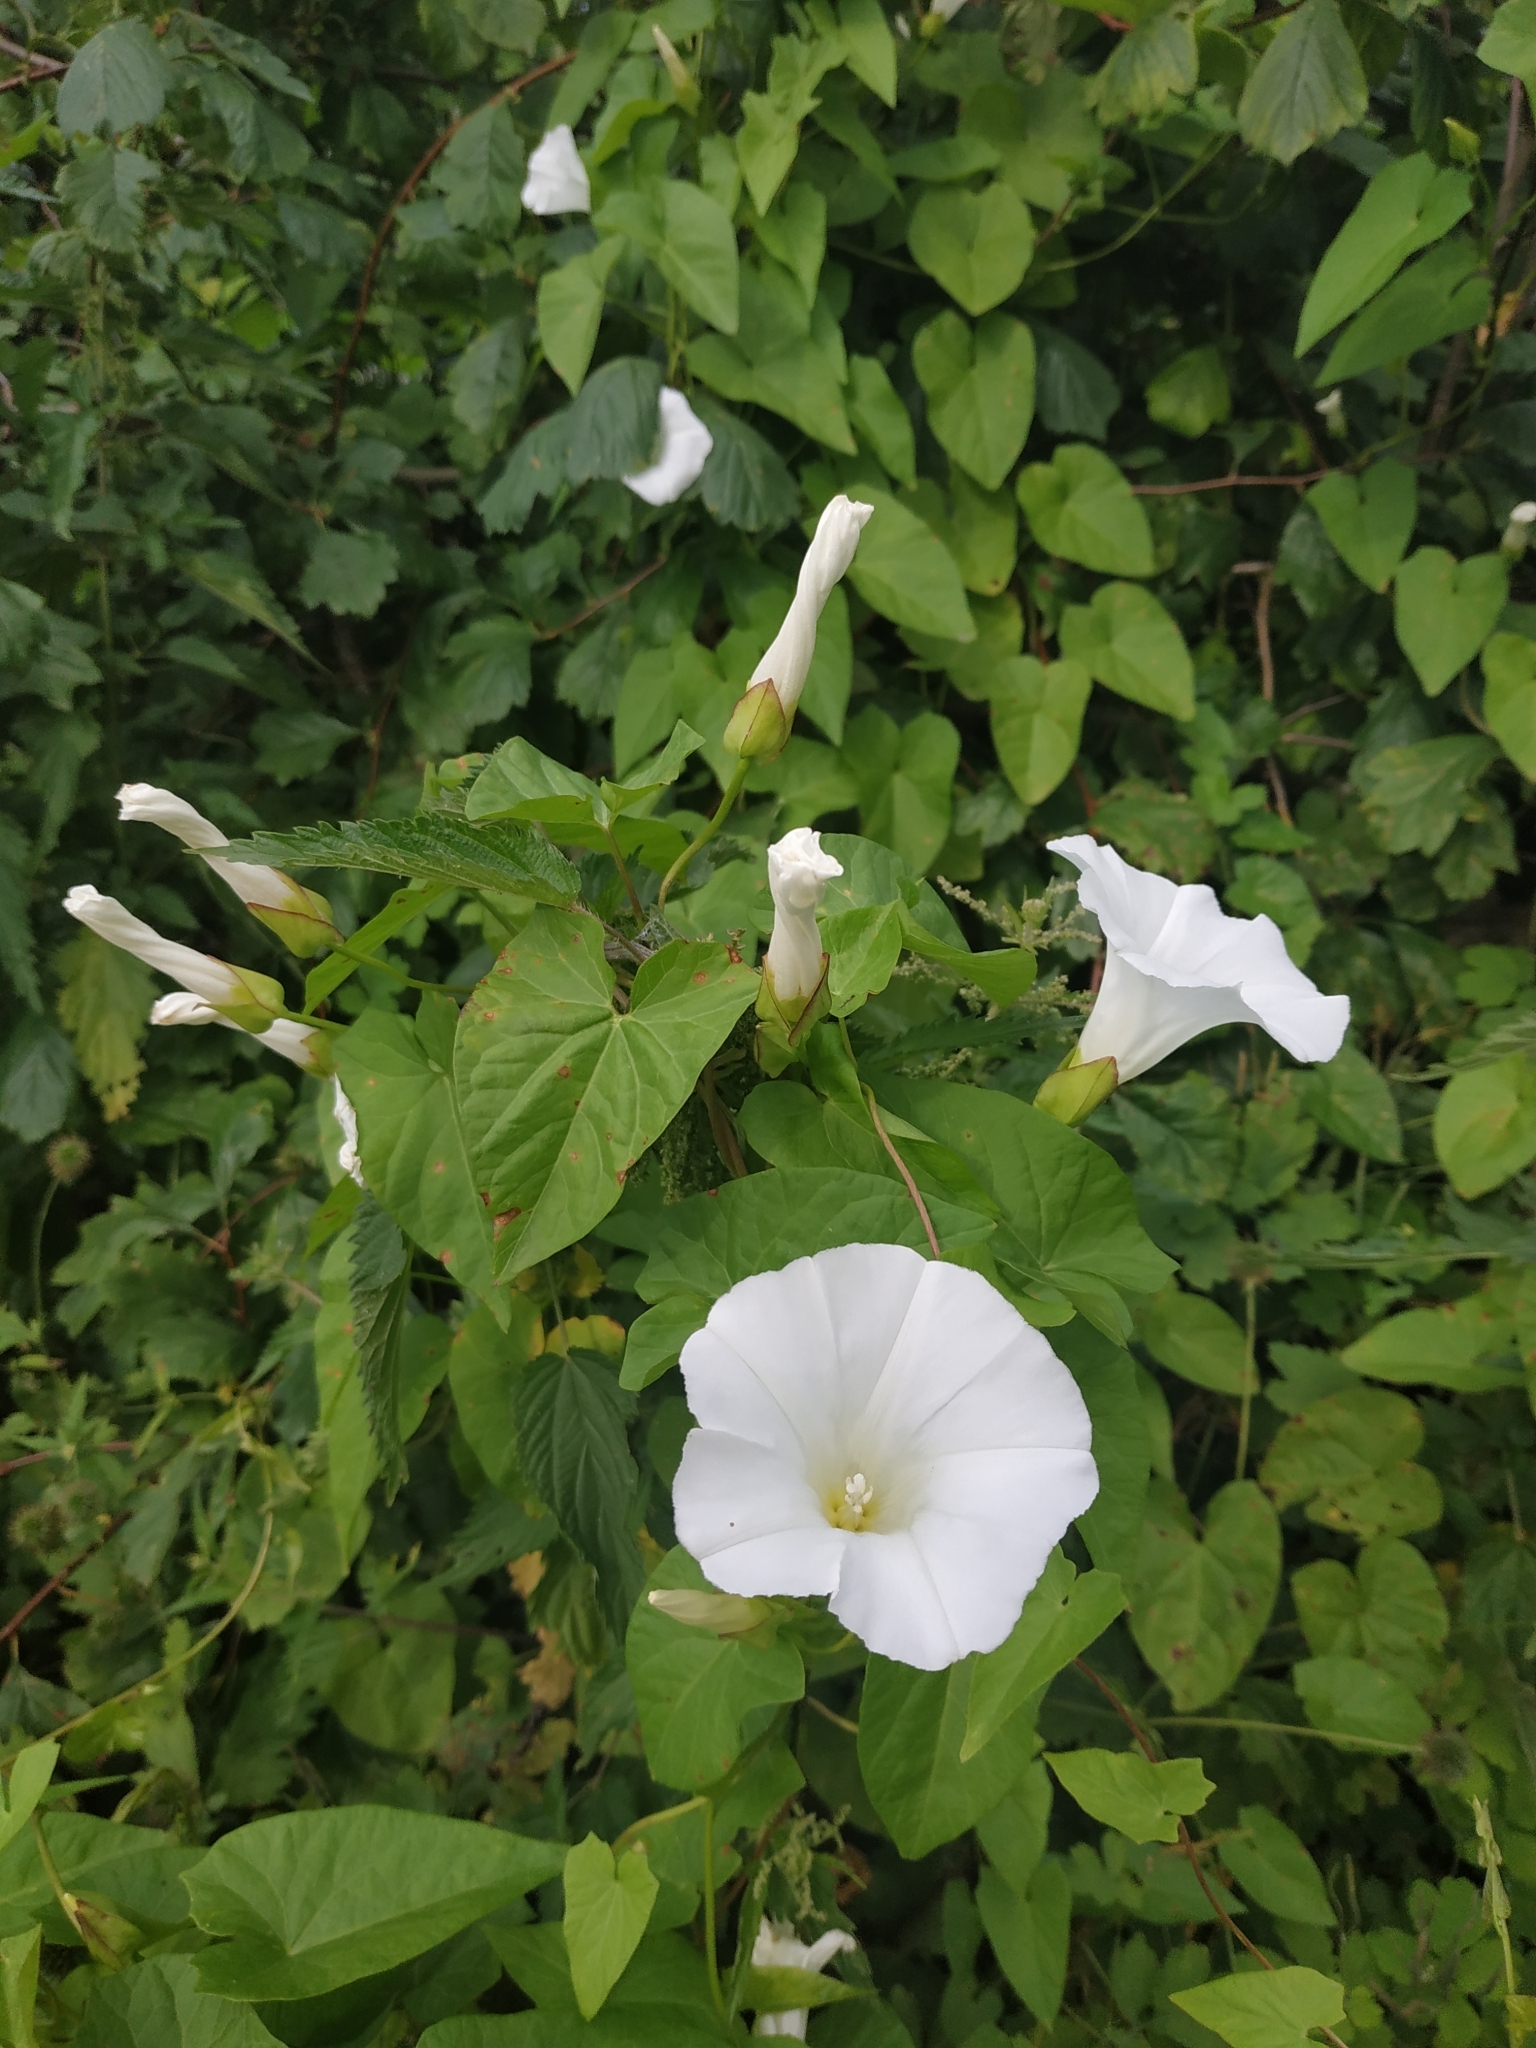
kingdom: Plantae
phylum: Tracheophyta
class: Magnoliopsida
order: Solanales
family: Convolvulaceae
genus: Calystegia
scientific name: Calystegia sepium
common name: Hedge bindweed
